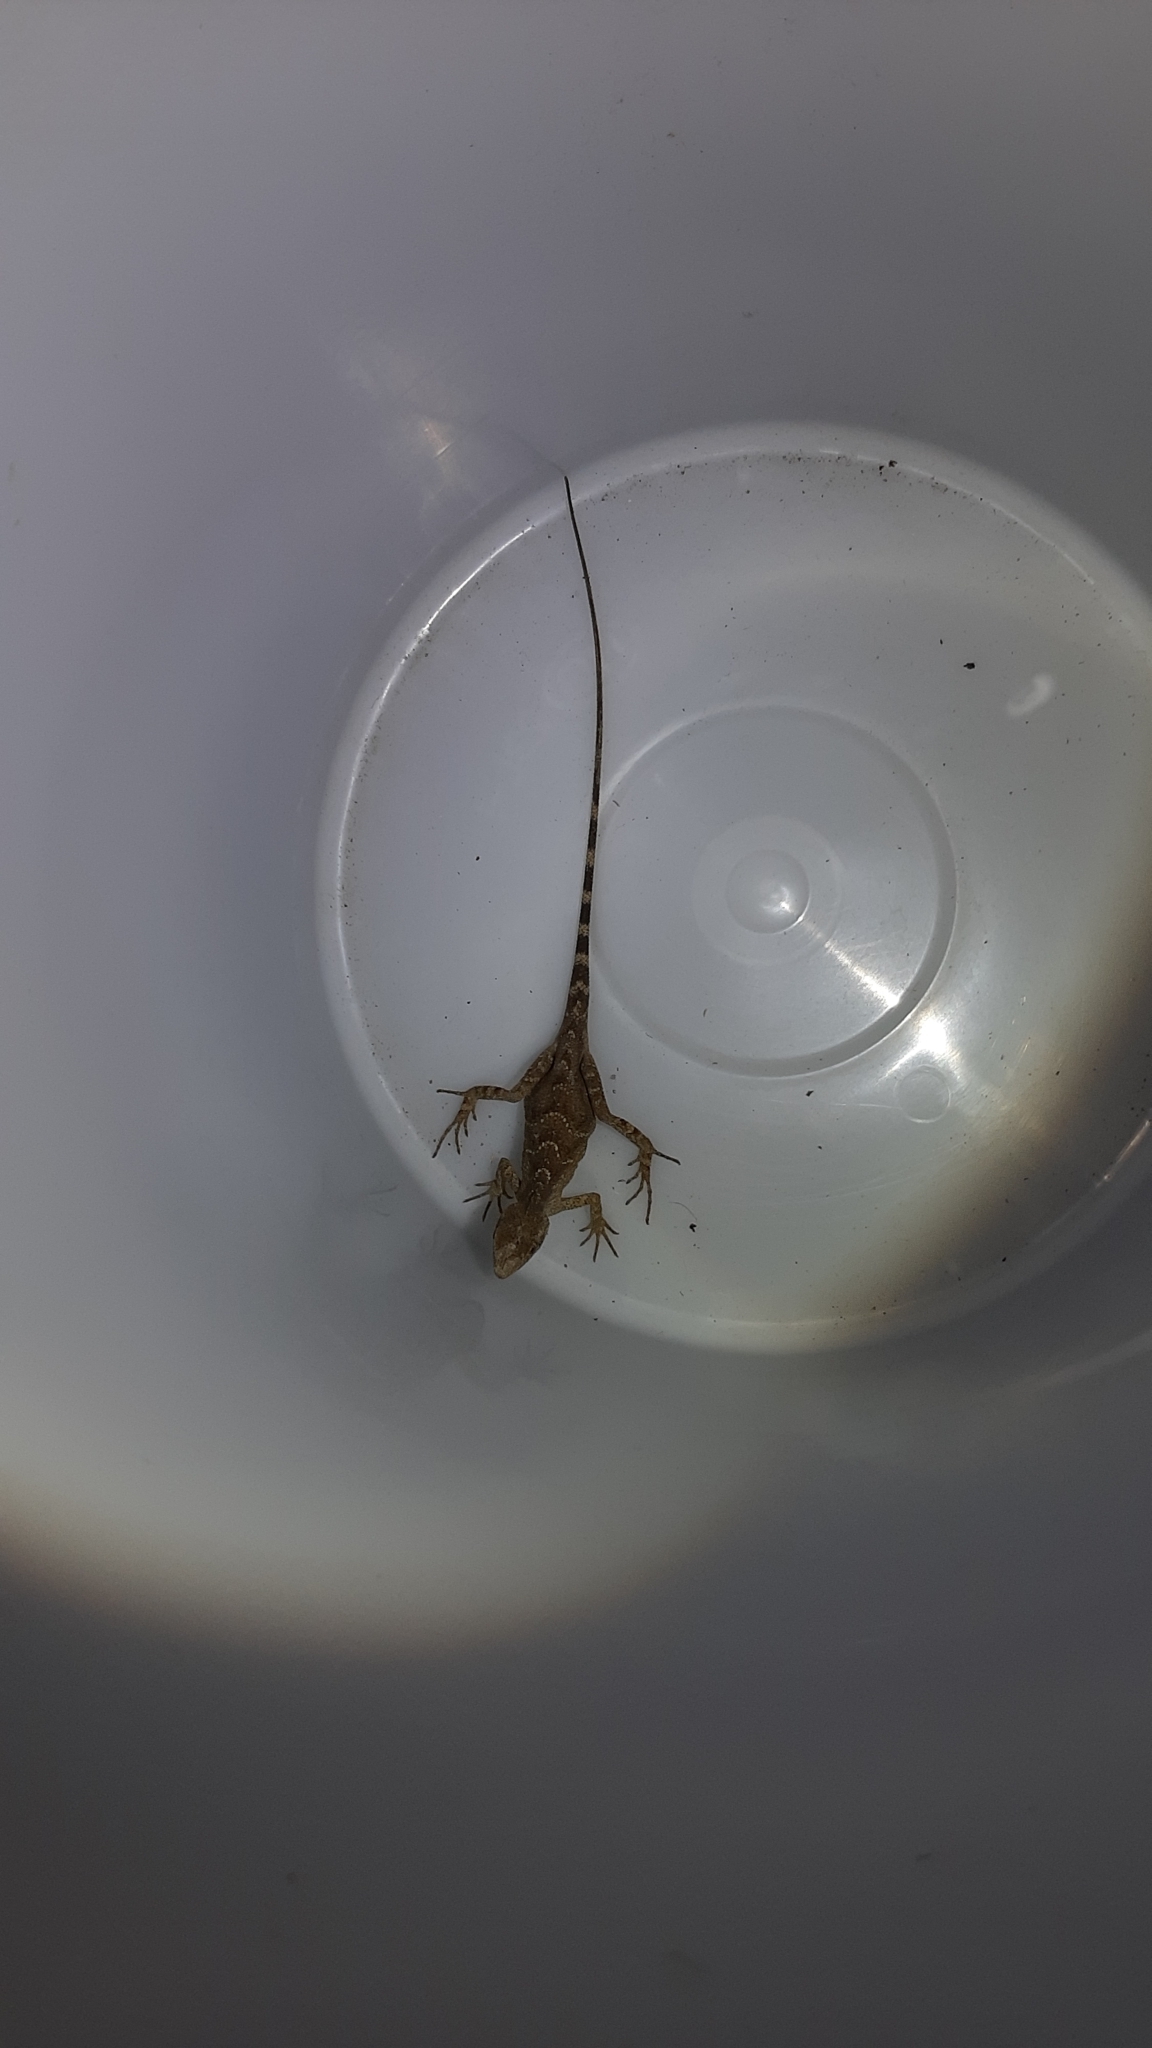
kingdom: Animalia
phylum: Chordata
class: Squamata
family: Agamidae
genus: Diploderma
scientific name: Diploderma swinhonis
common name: Taiwan japalure
